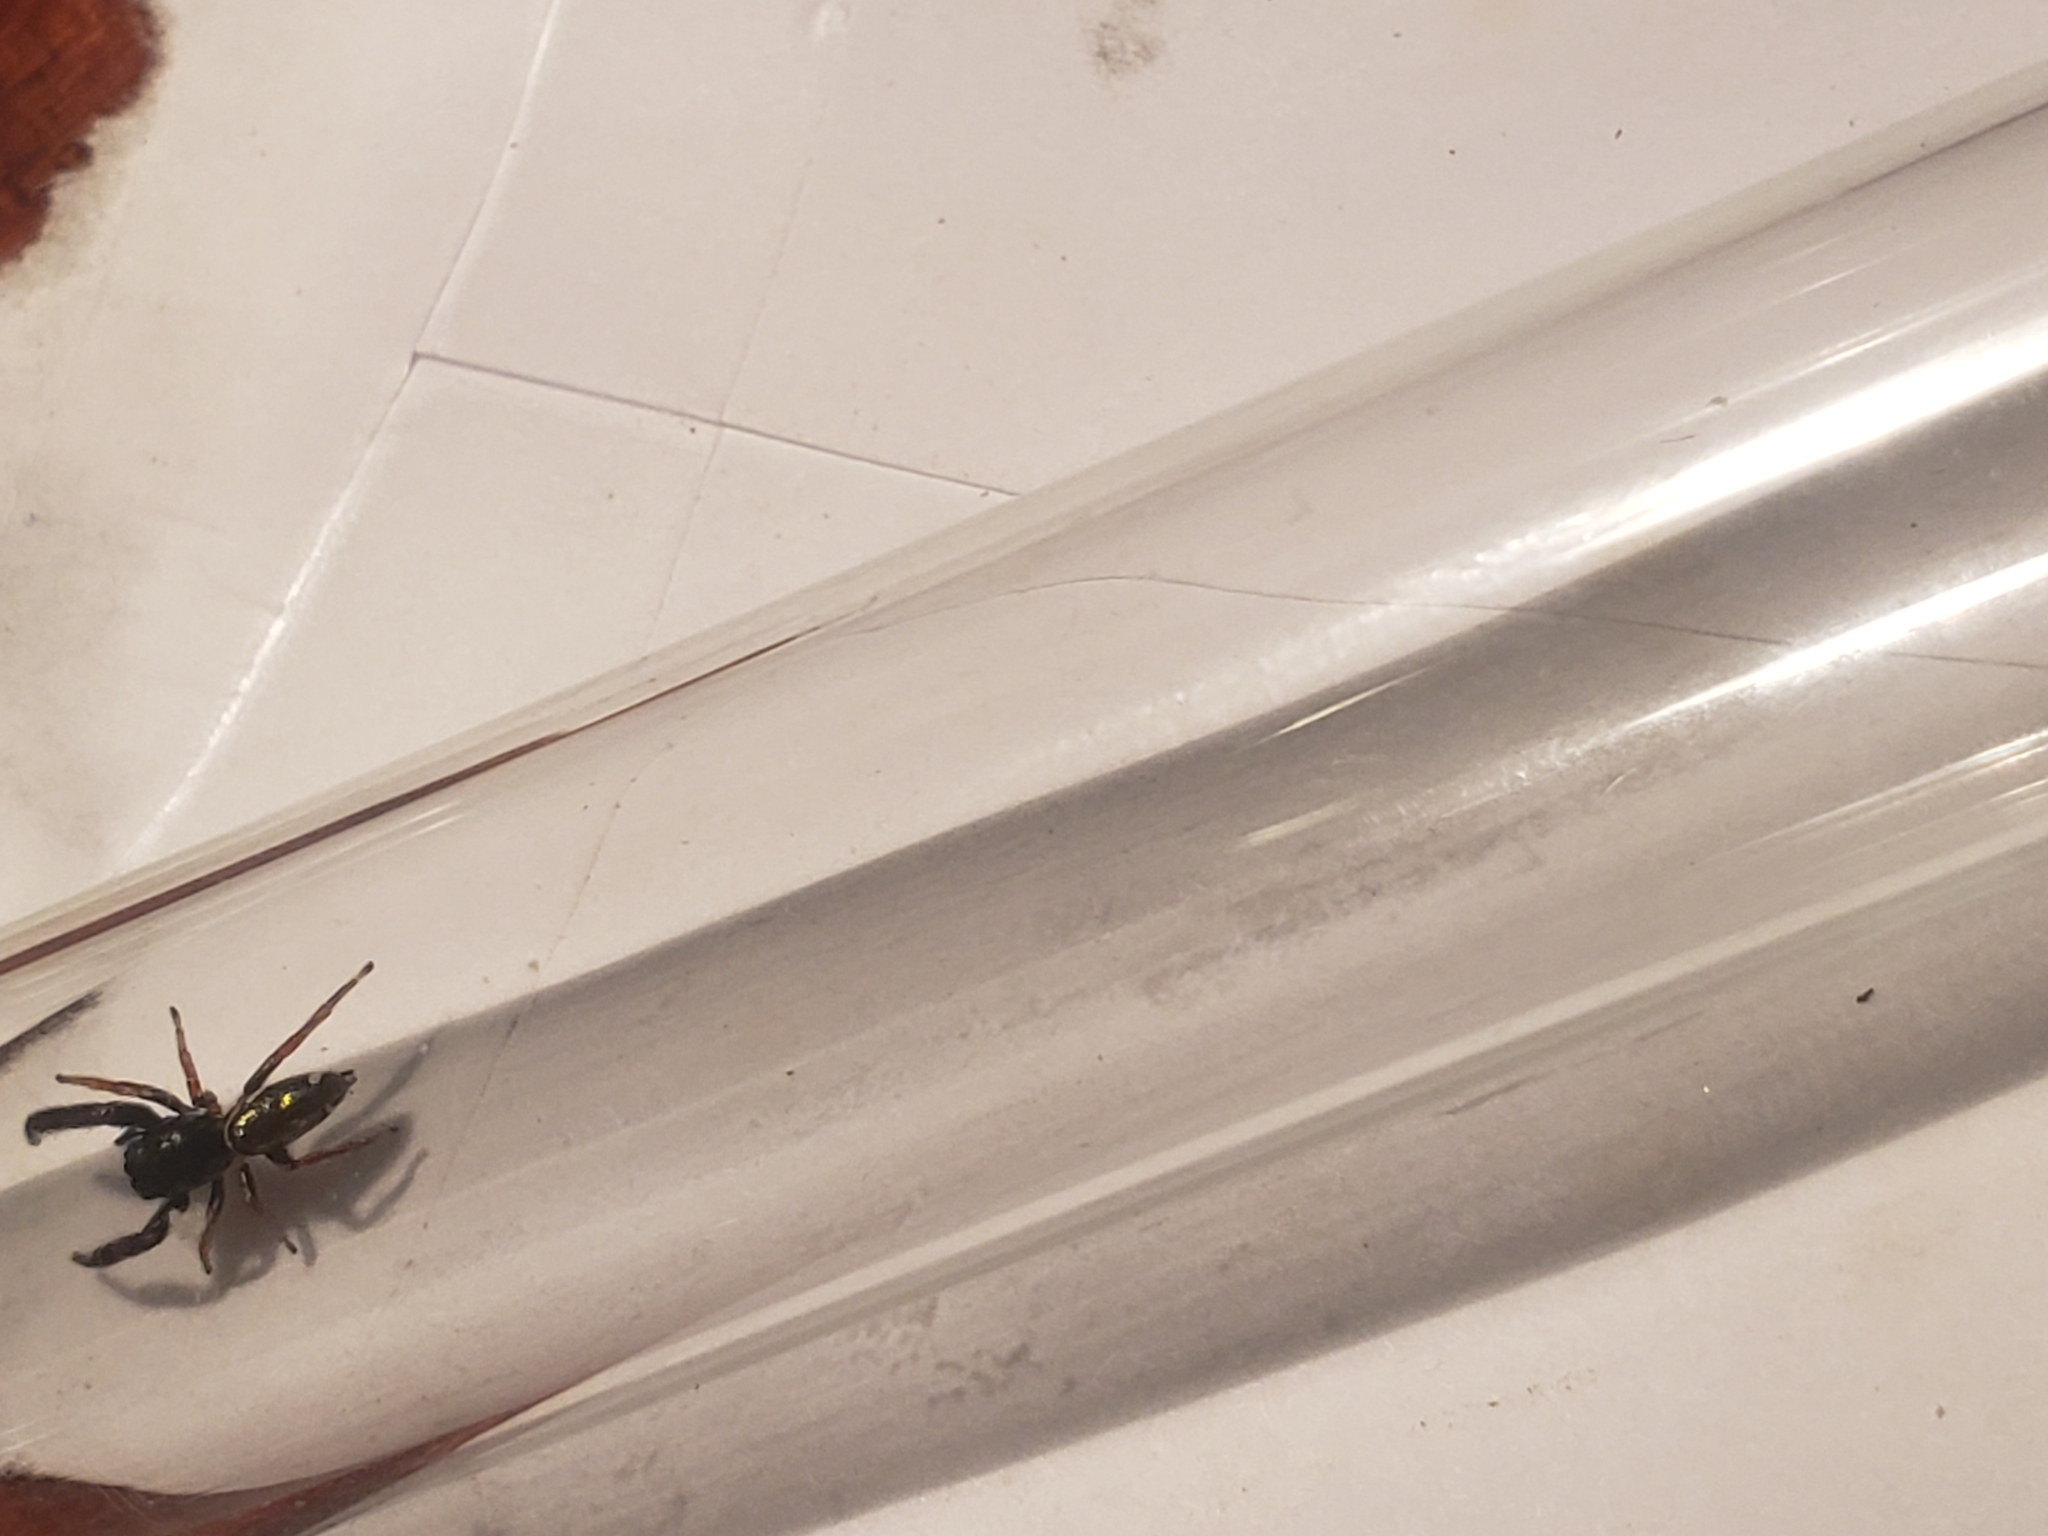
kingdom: Animalia
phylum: Arthropoda
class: Arachnida
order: Araneae
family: Salticidae
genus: Sassacus
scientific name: Sassacus vitis
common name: Jumping spiders
